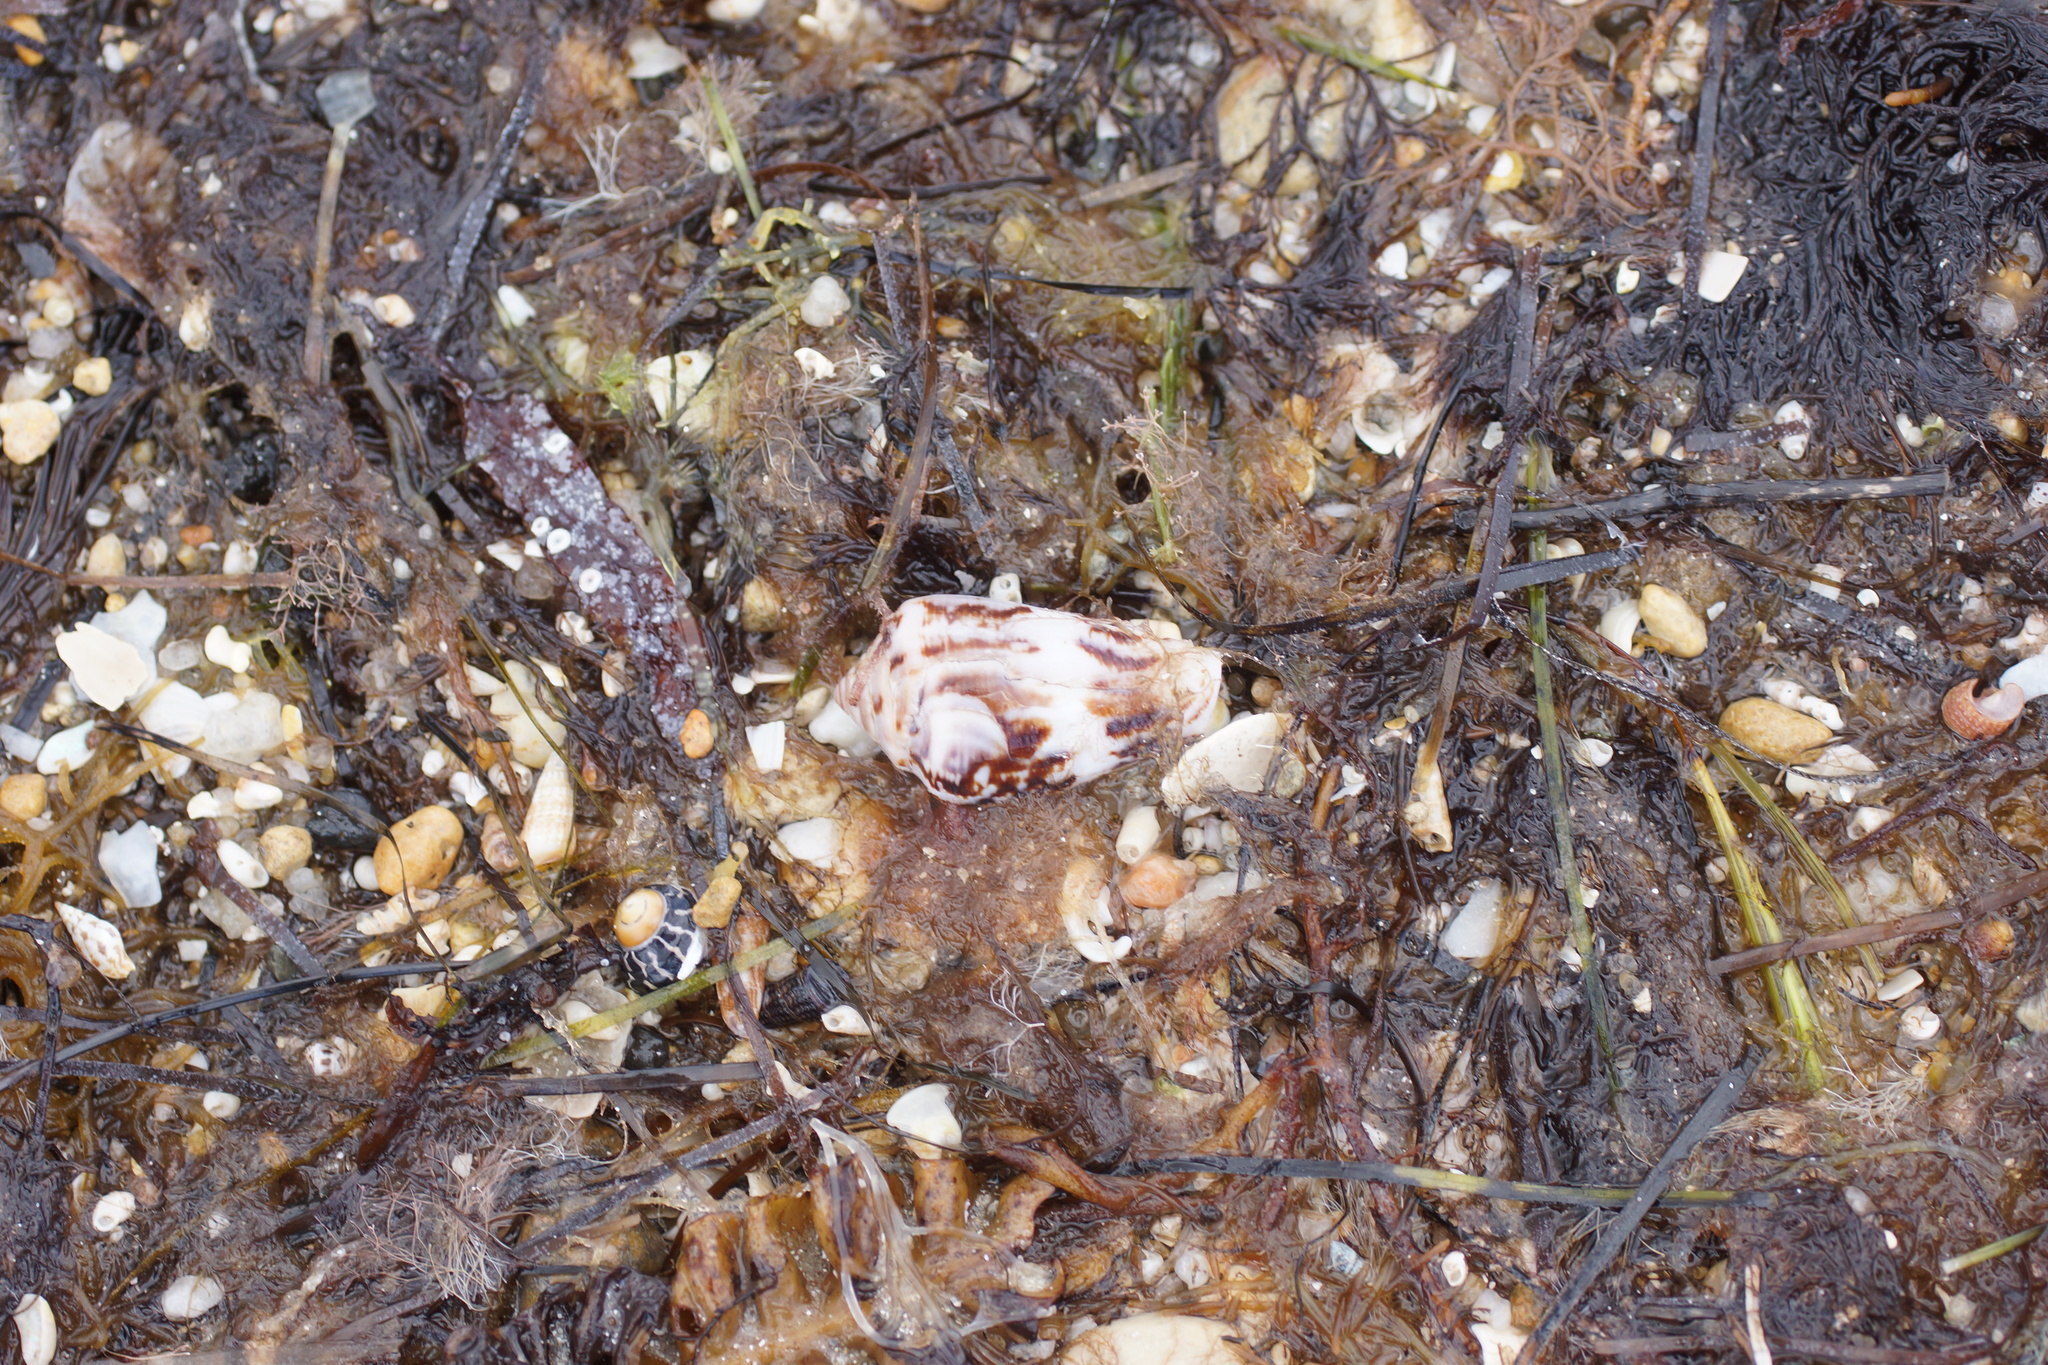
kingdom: Animalia
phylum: Mollusca
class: Gastropoda
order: Neogastropoda
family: Conidae
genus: Conus
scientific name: Conus anemone
